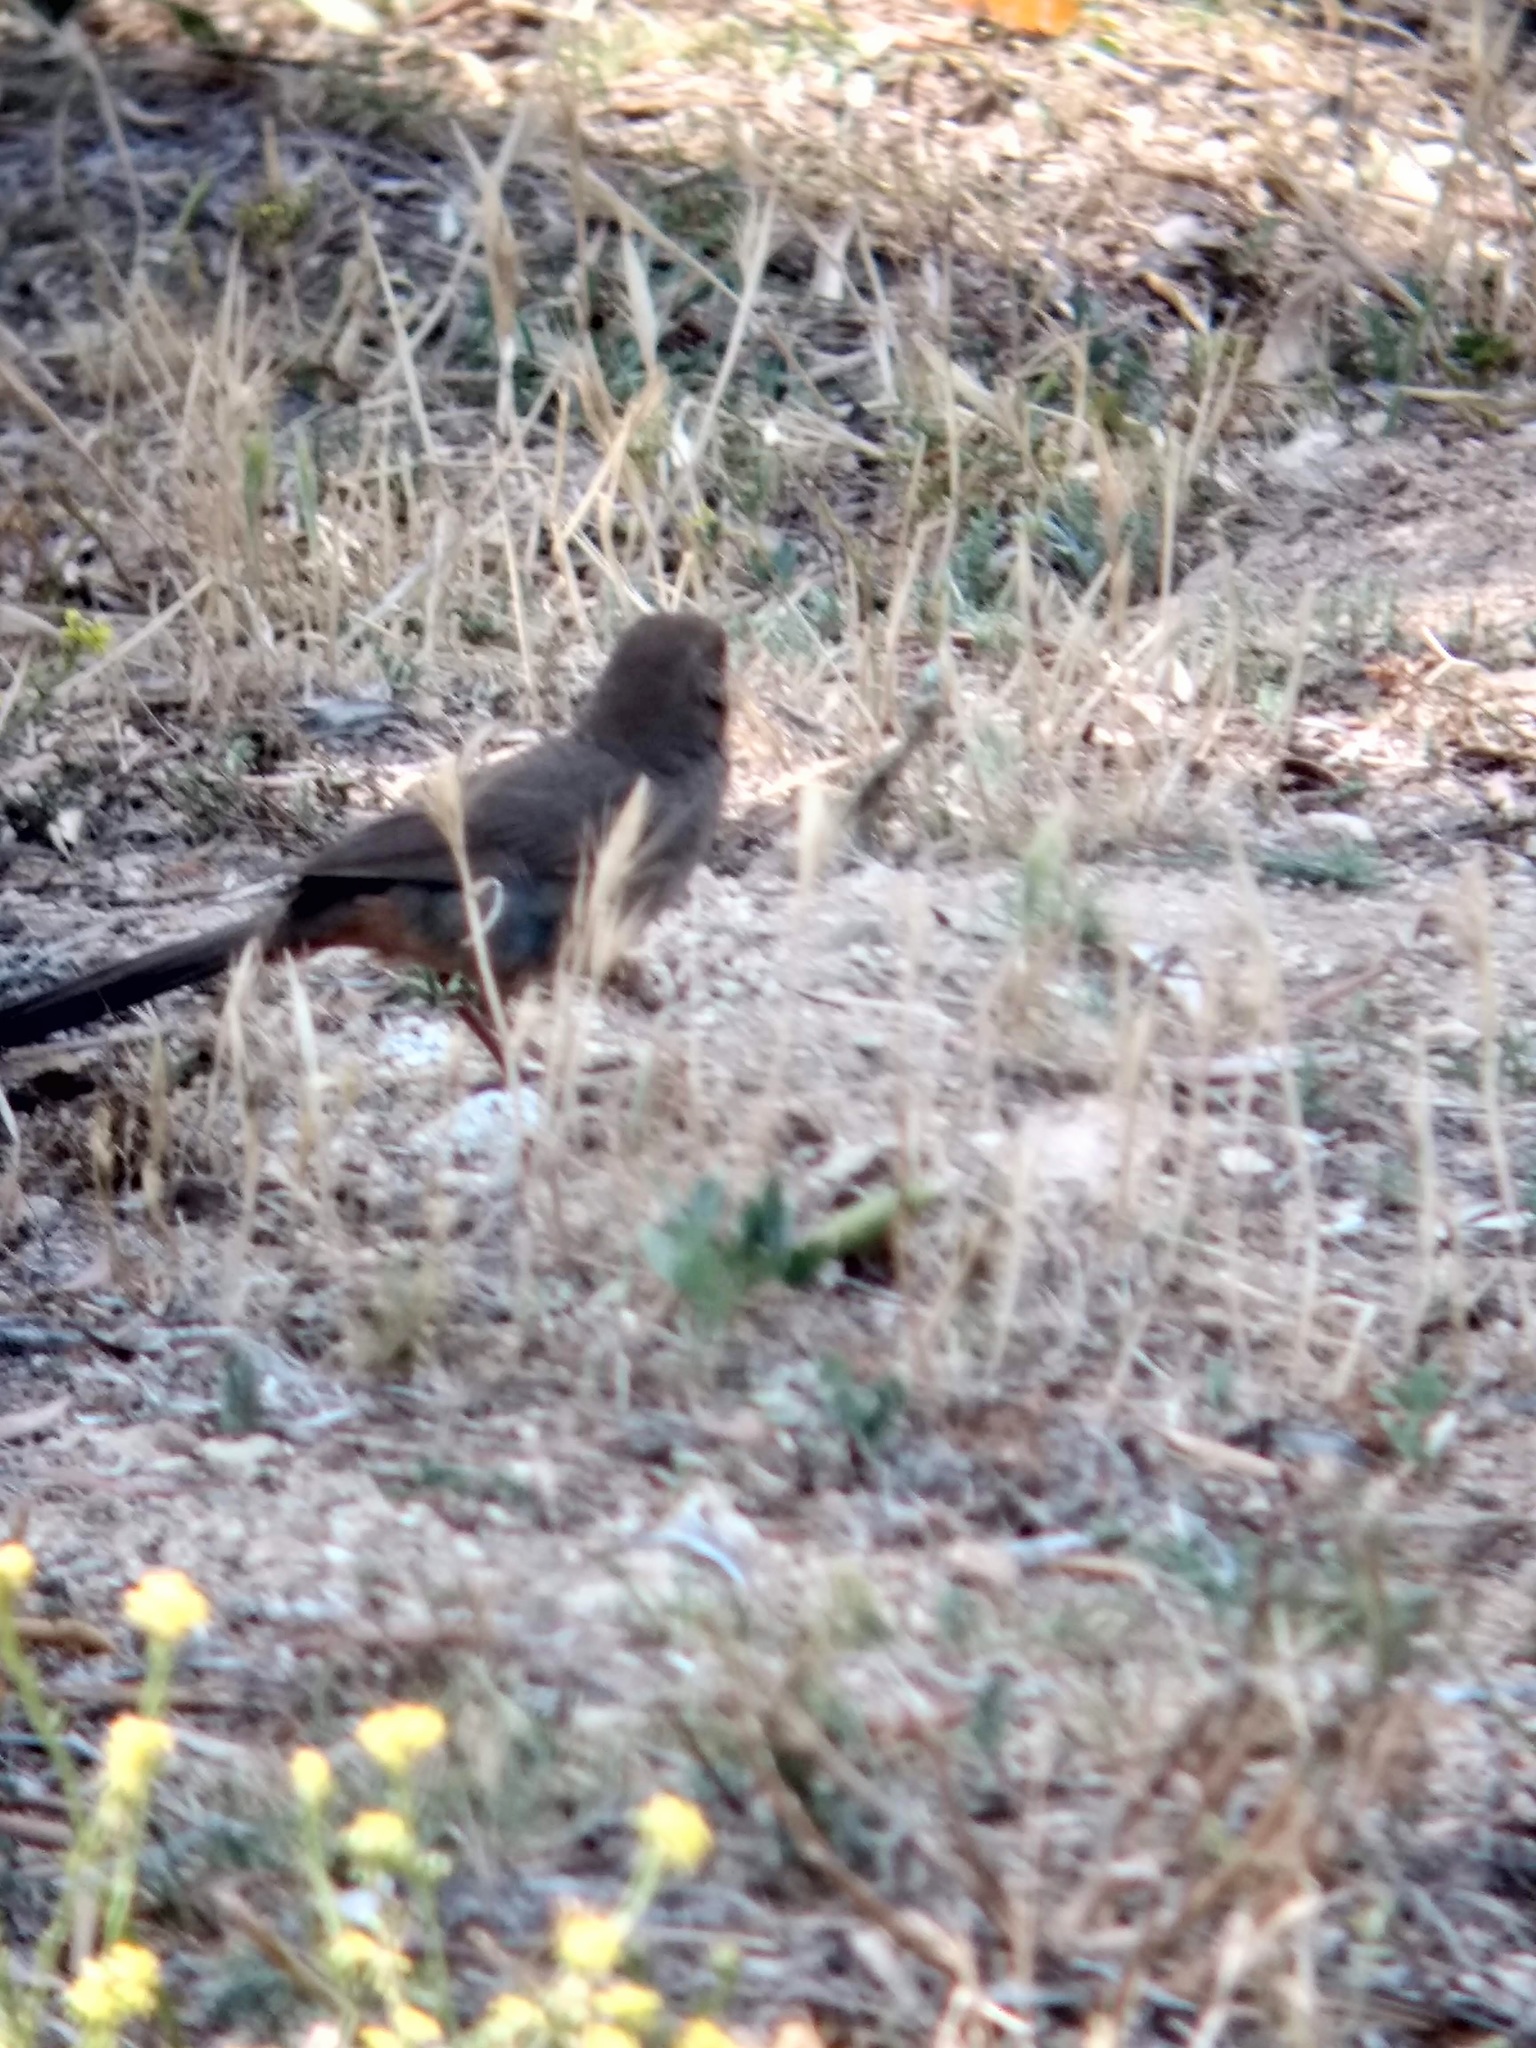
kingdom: Animalia
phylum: Chordata
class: Aves
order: Passeriformes
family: Passerellidae
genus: Melozone
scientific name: Melozone crissalis
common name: California towhee
